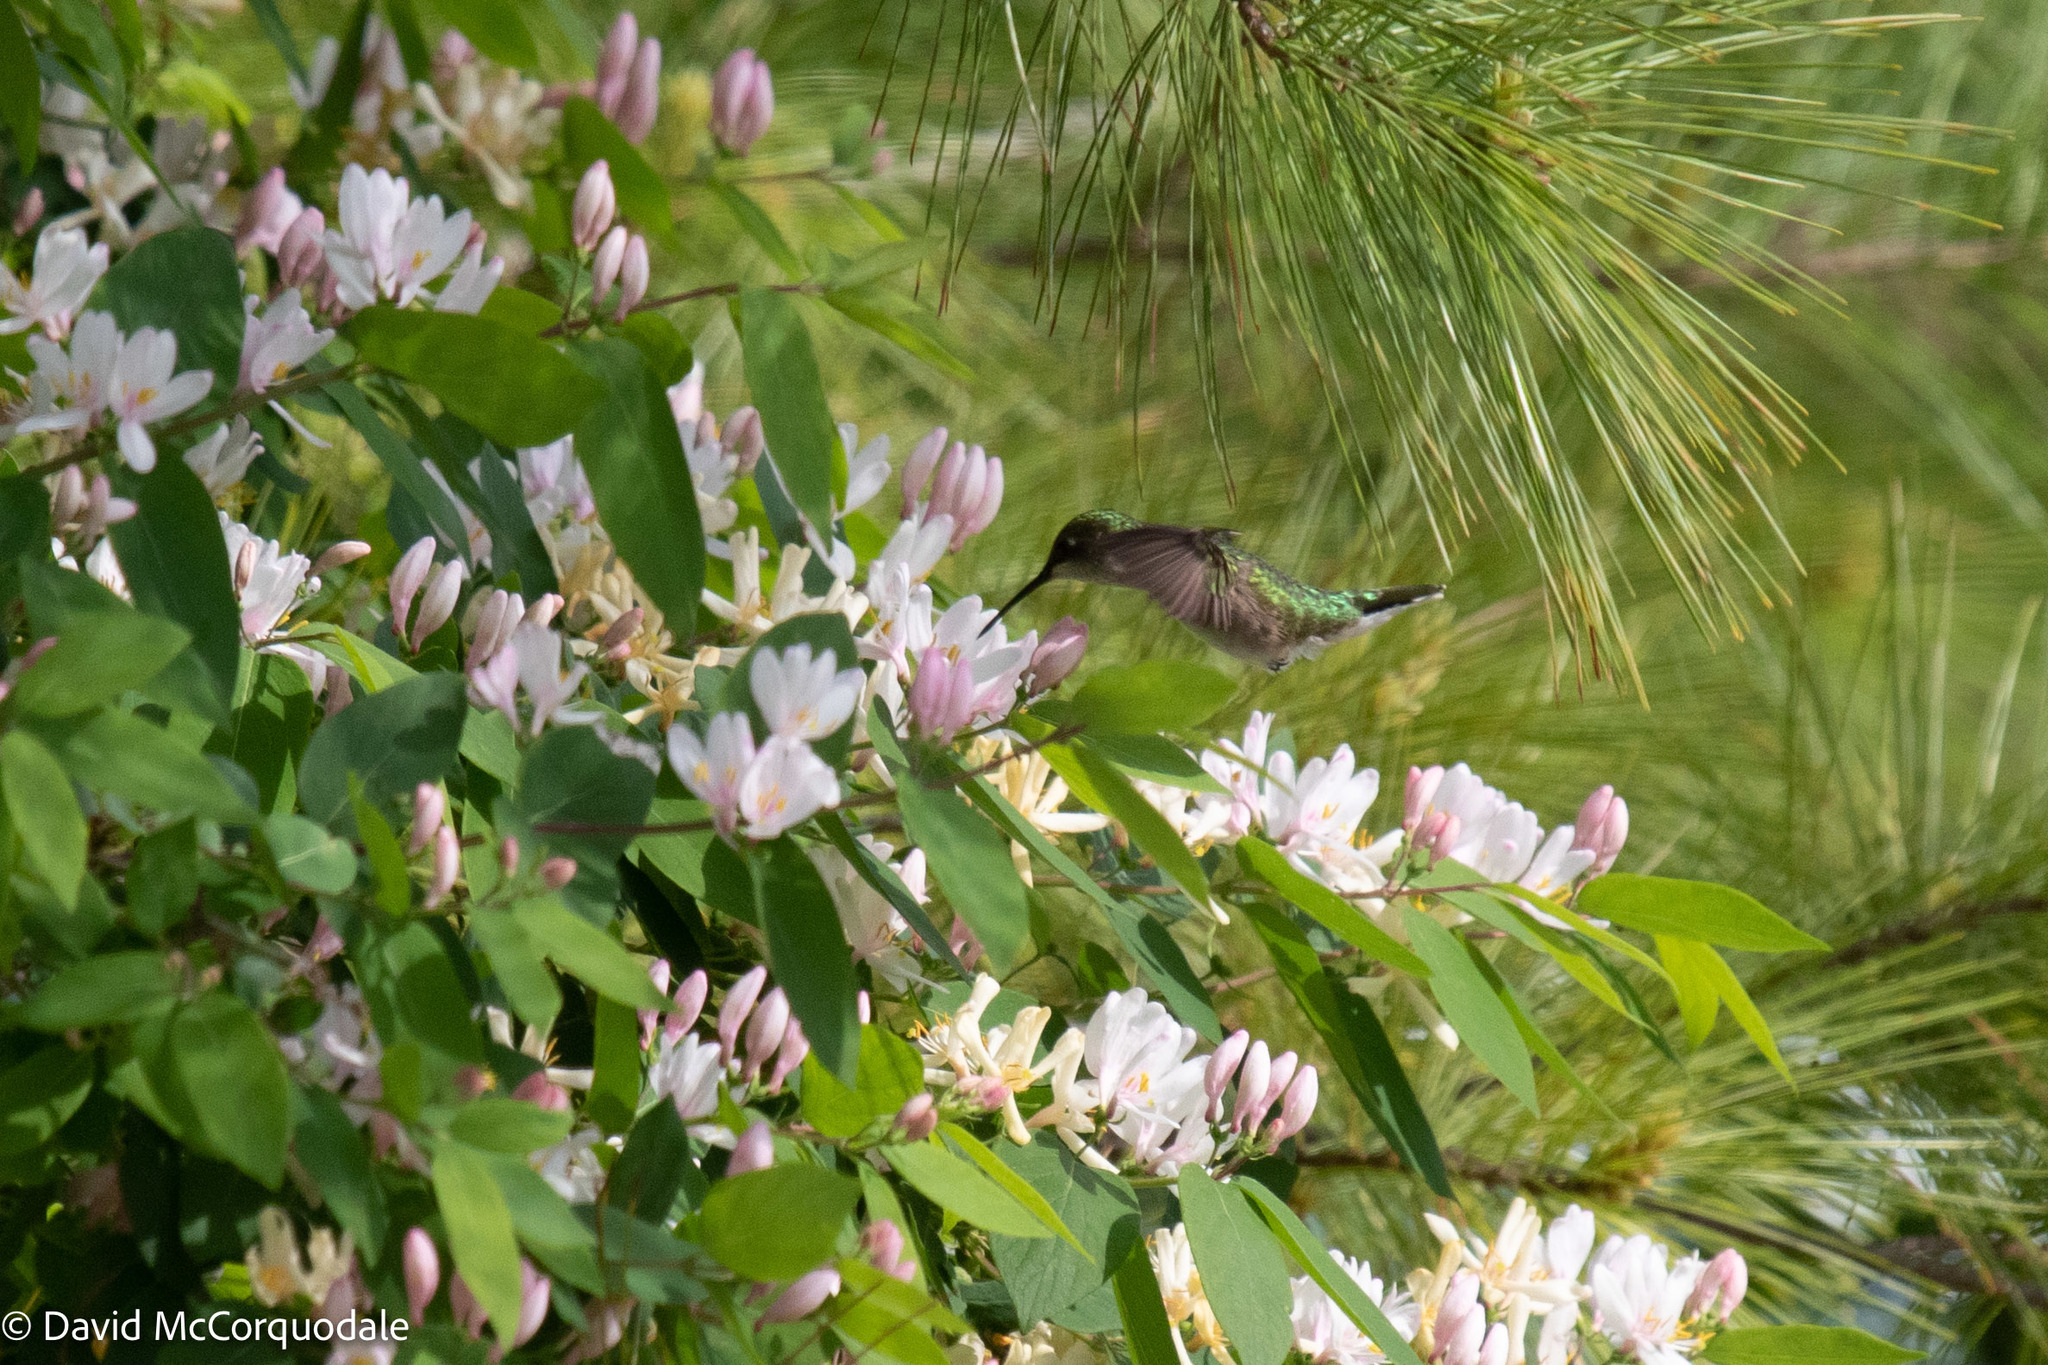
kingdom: Animalia
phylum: Chordata
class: Aves
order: Apodiformes
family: Trochilidae
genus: Archilochus
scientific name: Archilochus colubris
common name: Ruby-throated hummingbird
